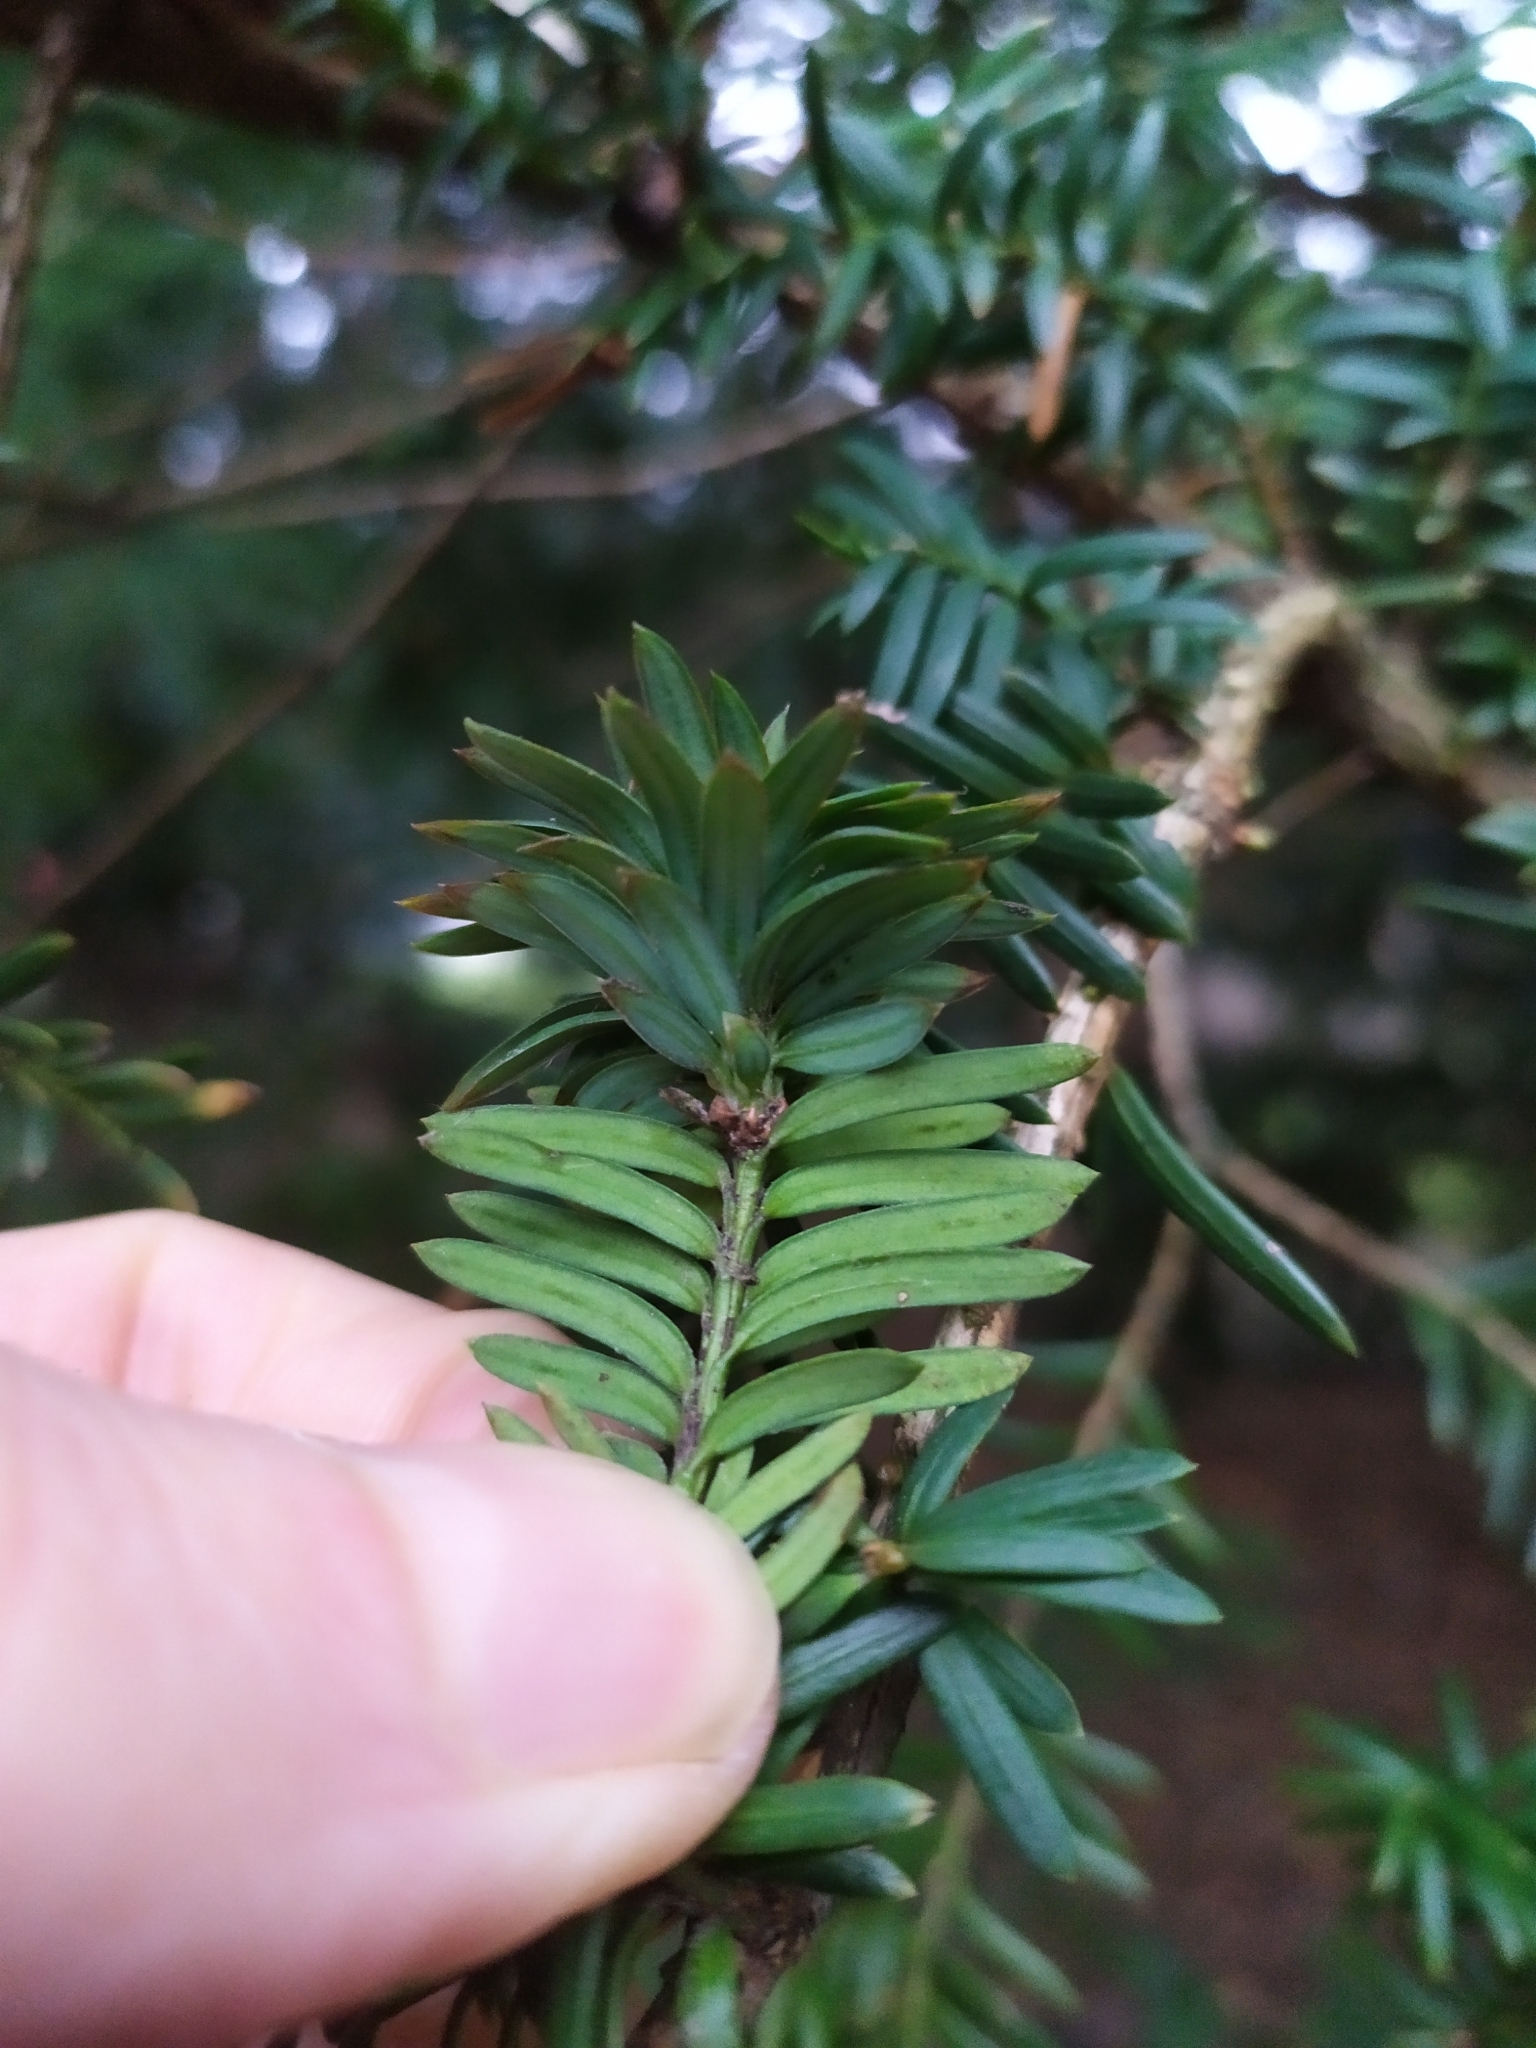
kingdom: Animalia
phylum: Arthropoda
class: Insecta
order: Diptera
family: Cecidomyiidae
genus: Taxomyia
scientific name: Taxomyia taxi
